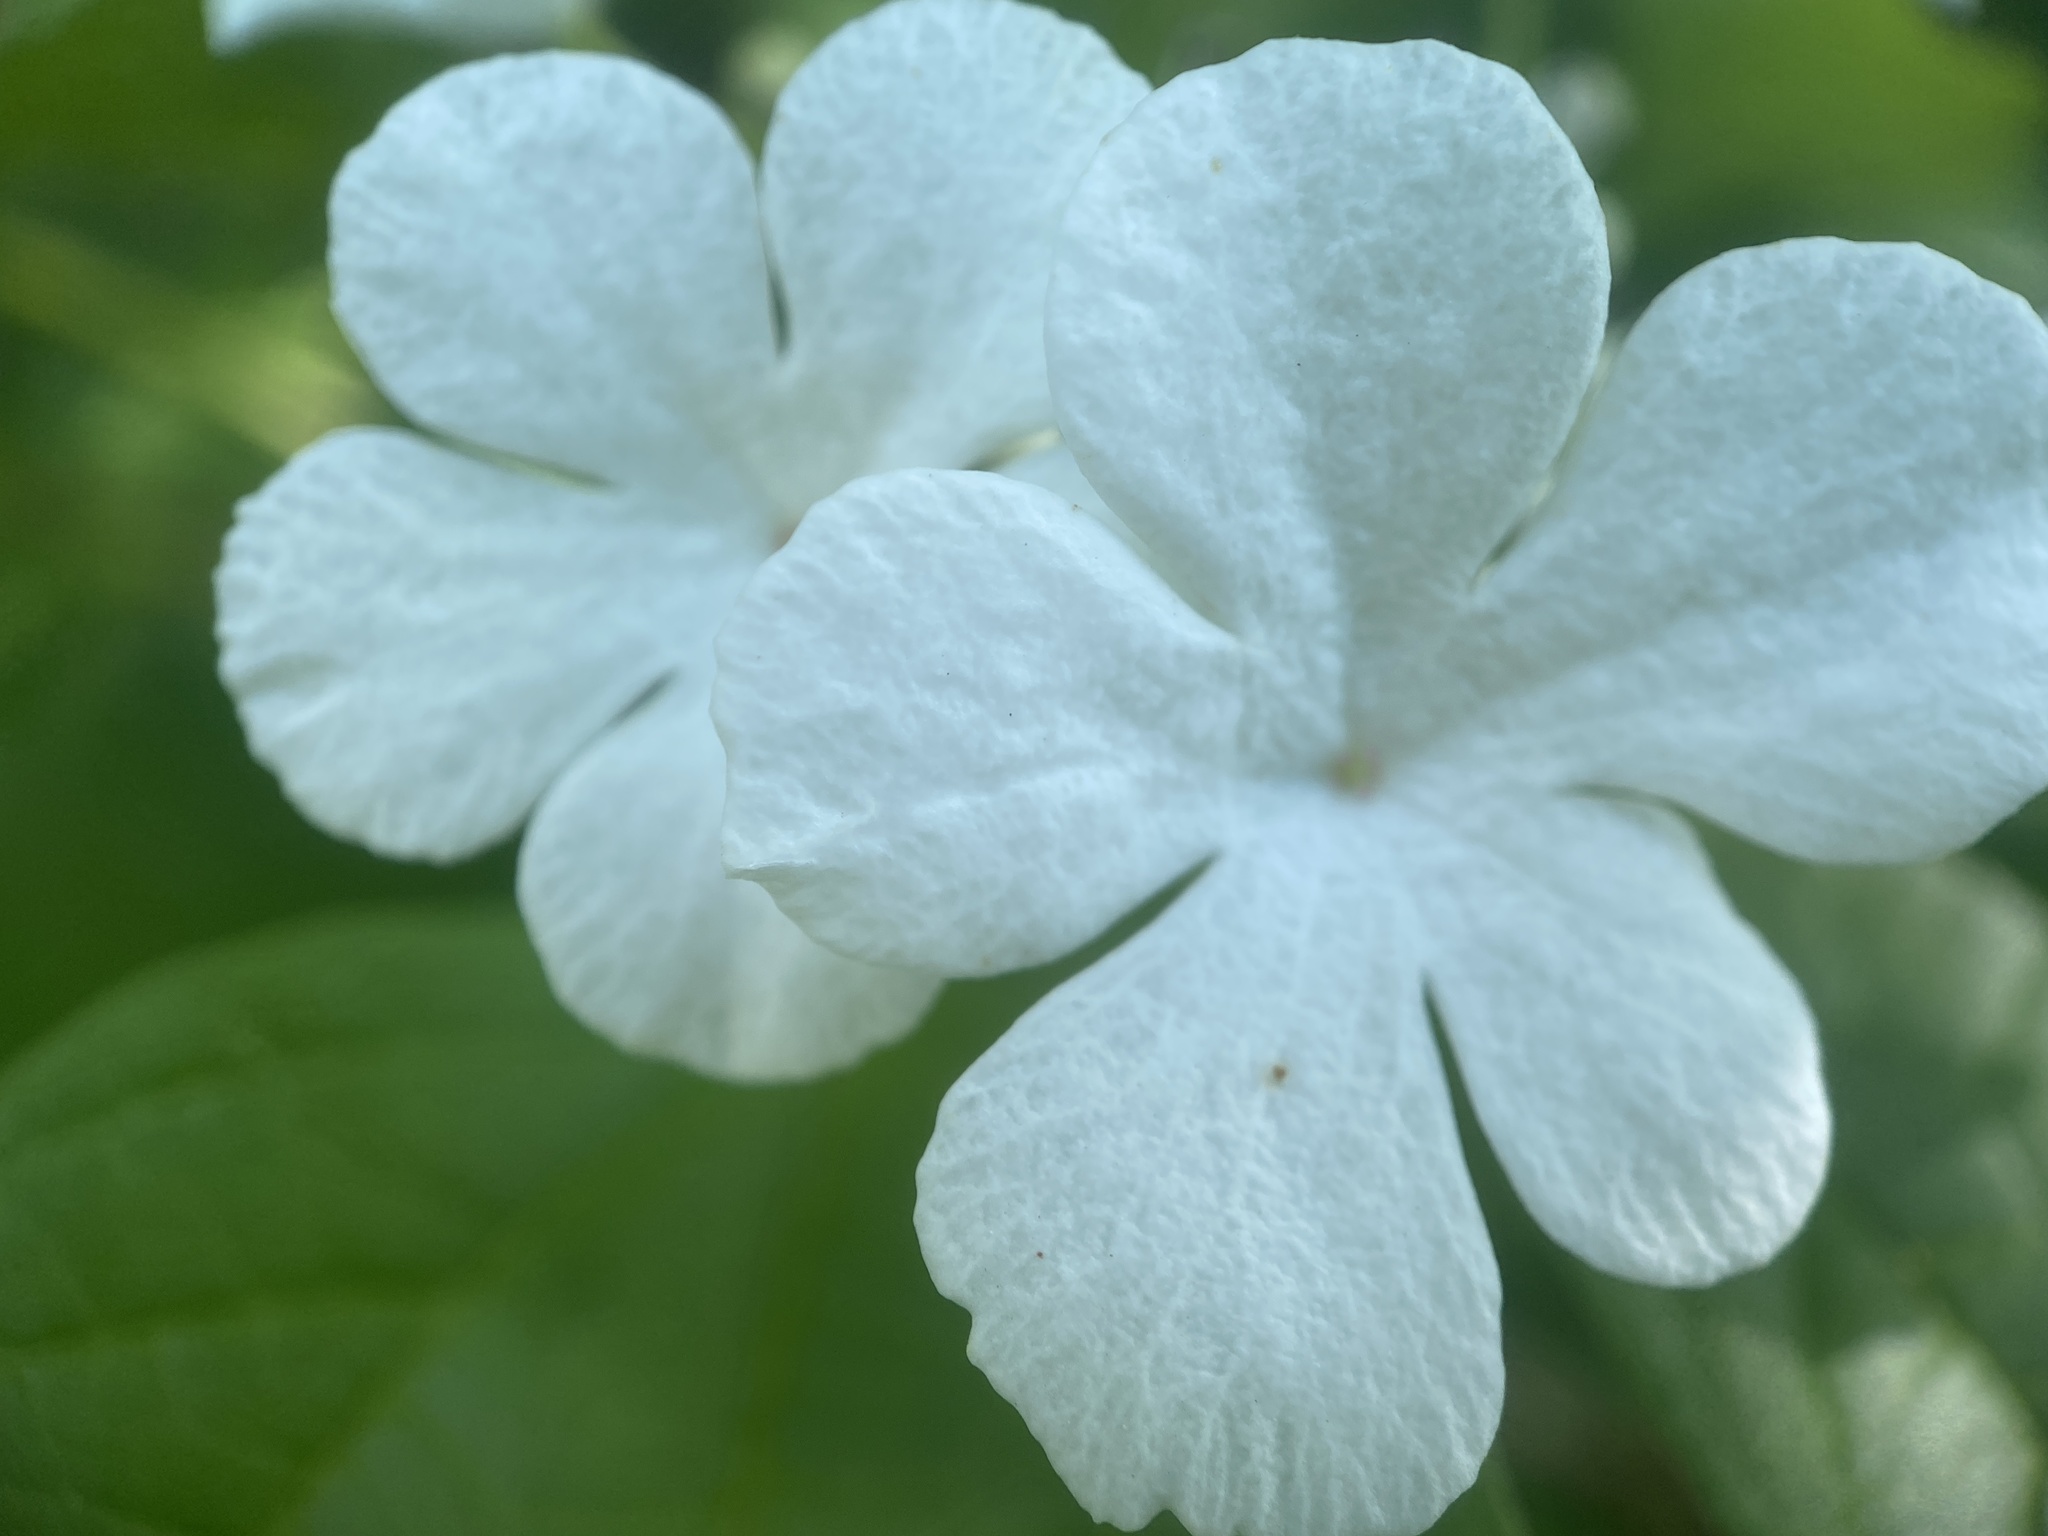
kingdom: Plantae
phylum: Tracheophyta
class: Magnoliopsida
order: Dipsacales
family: Viburnaceae
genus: Viburnum
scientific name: Viburnum opulus
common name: Guelder-rose
